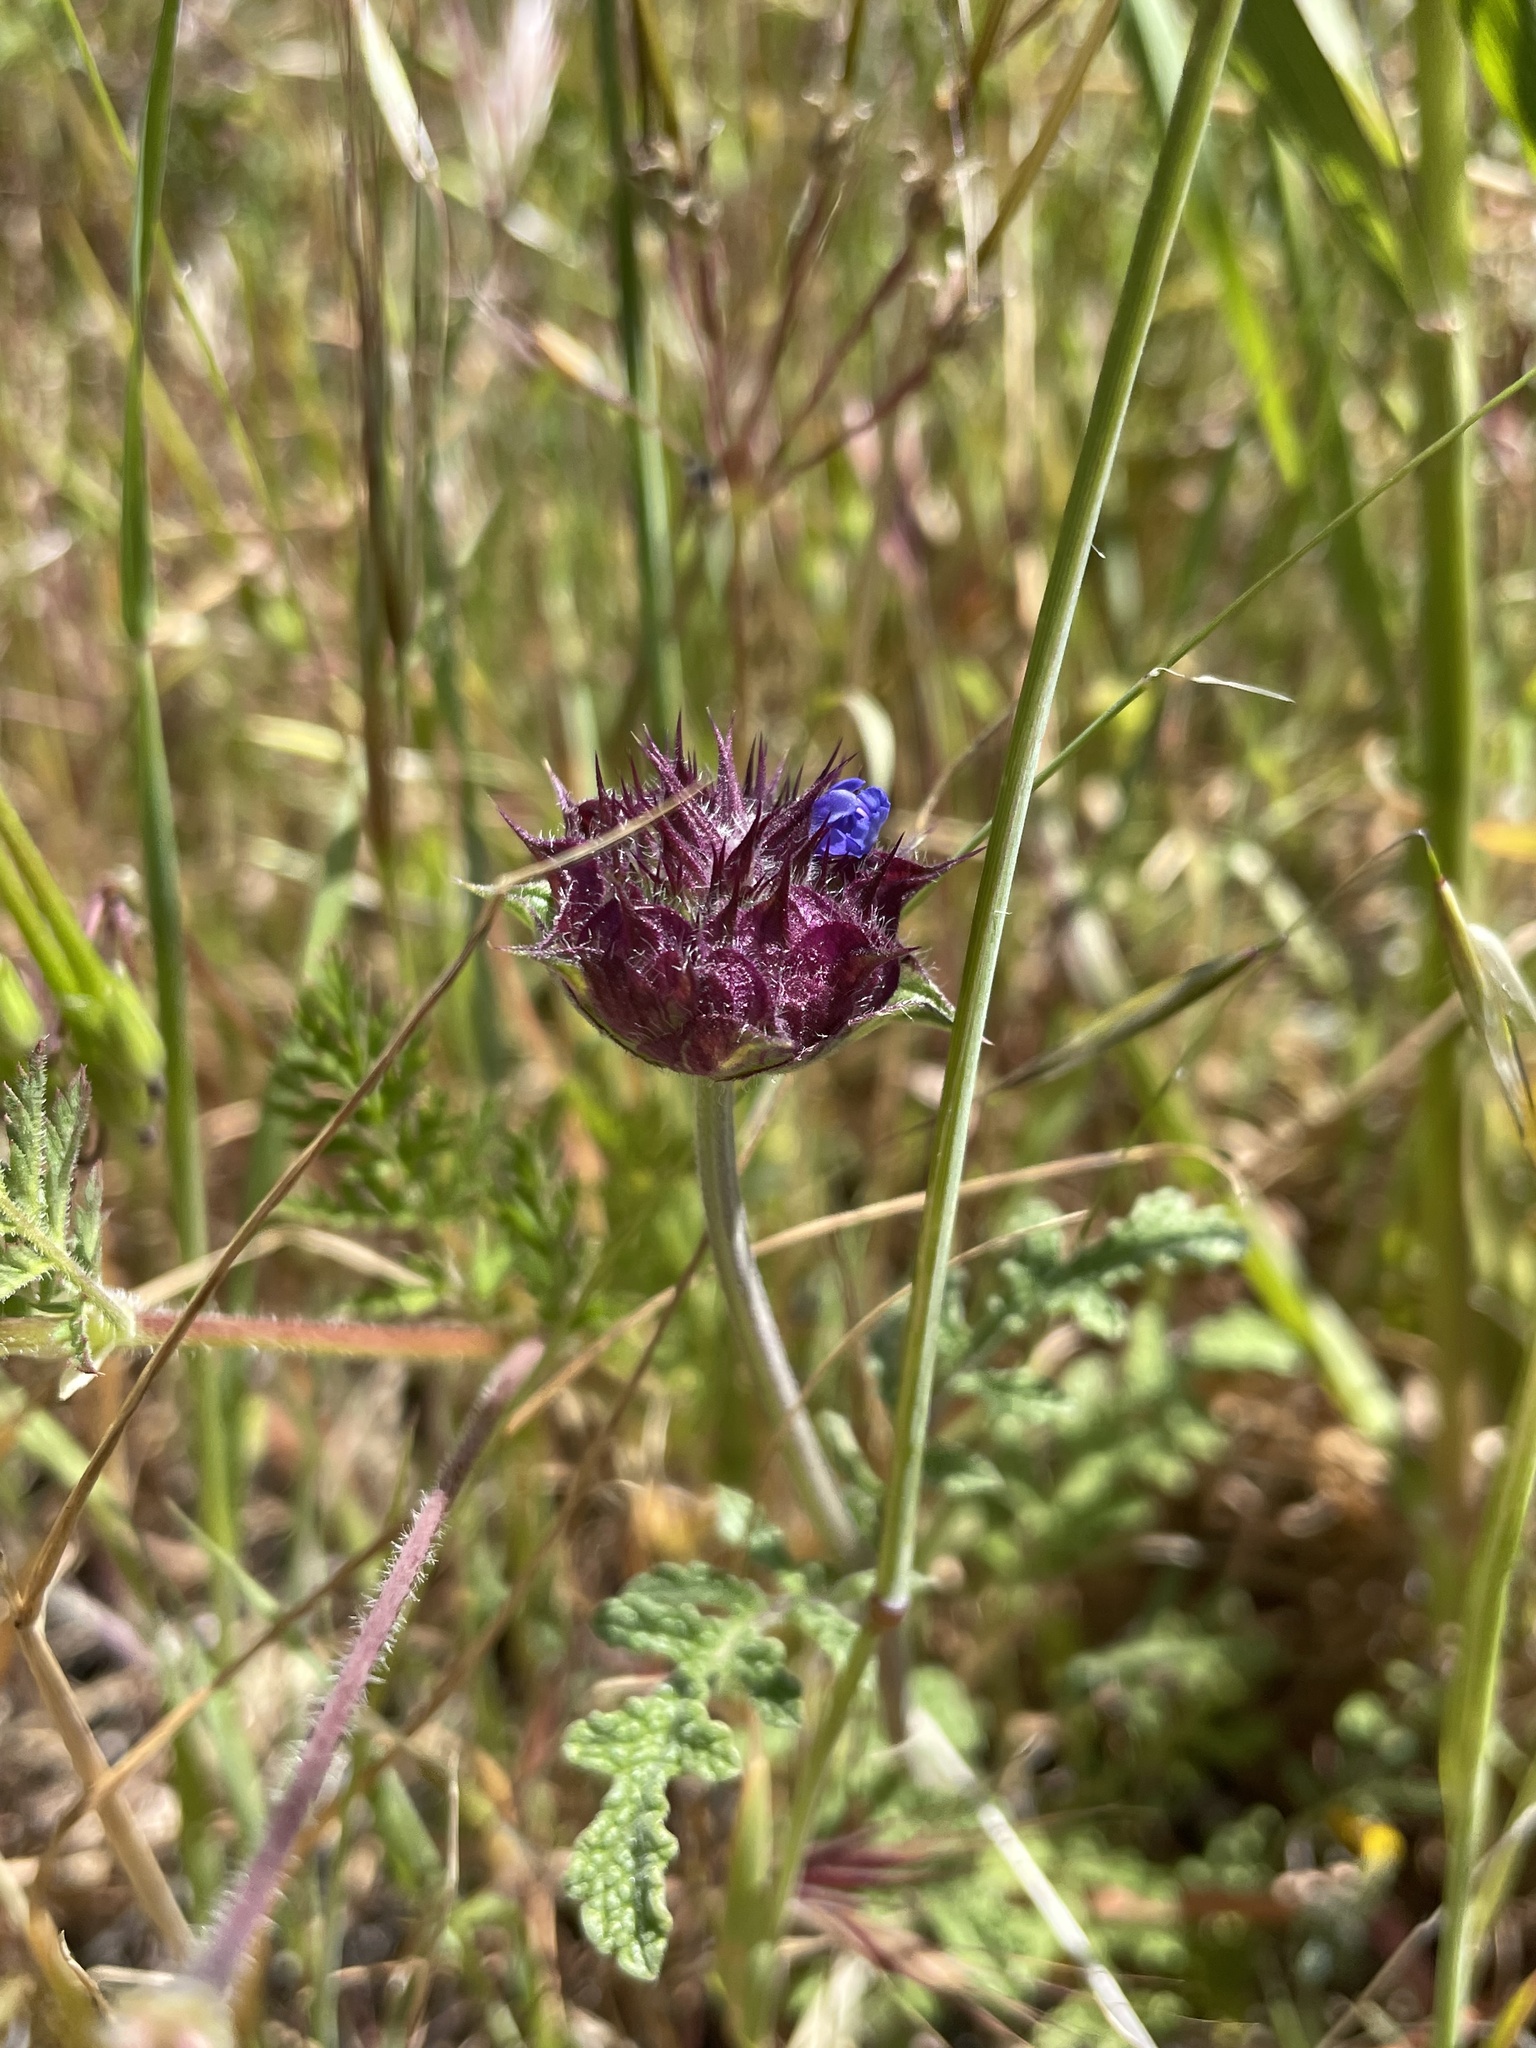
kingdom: Plantae
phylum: Tracheophyta
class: Magnoliopsida
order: Lamiales
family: Lamiaceae
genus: Salvia
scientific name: Salvia columbariae
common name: Chia
